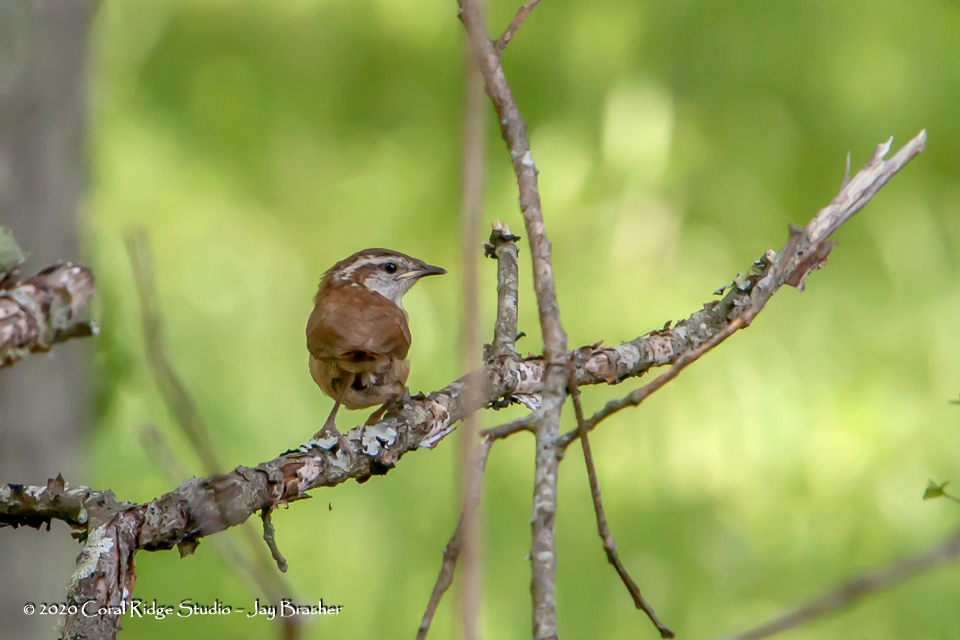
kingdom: Animalia
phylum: Chordata
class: Aves
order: Passeriformes
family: Troglodytidae
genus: Thryothorus
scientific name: Thryothorus ludovicianus
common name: Carolina wren
